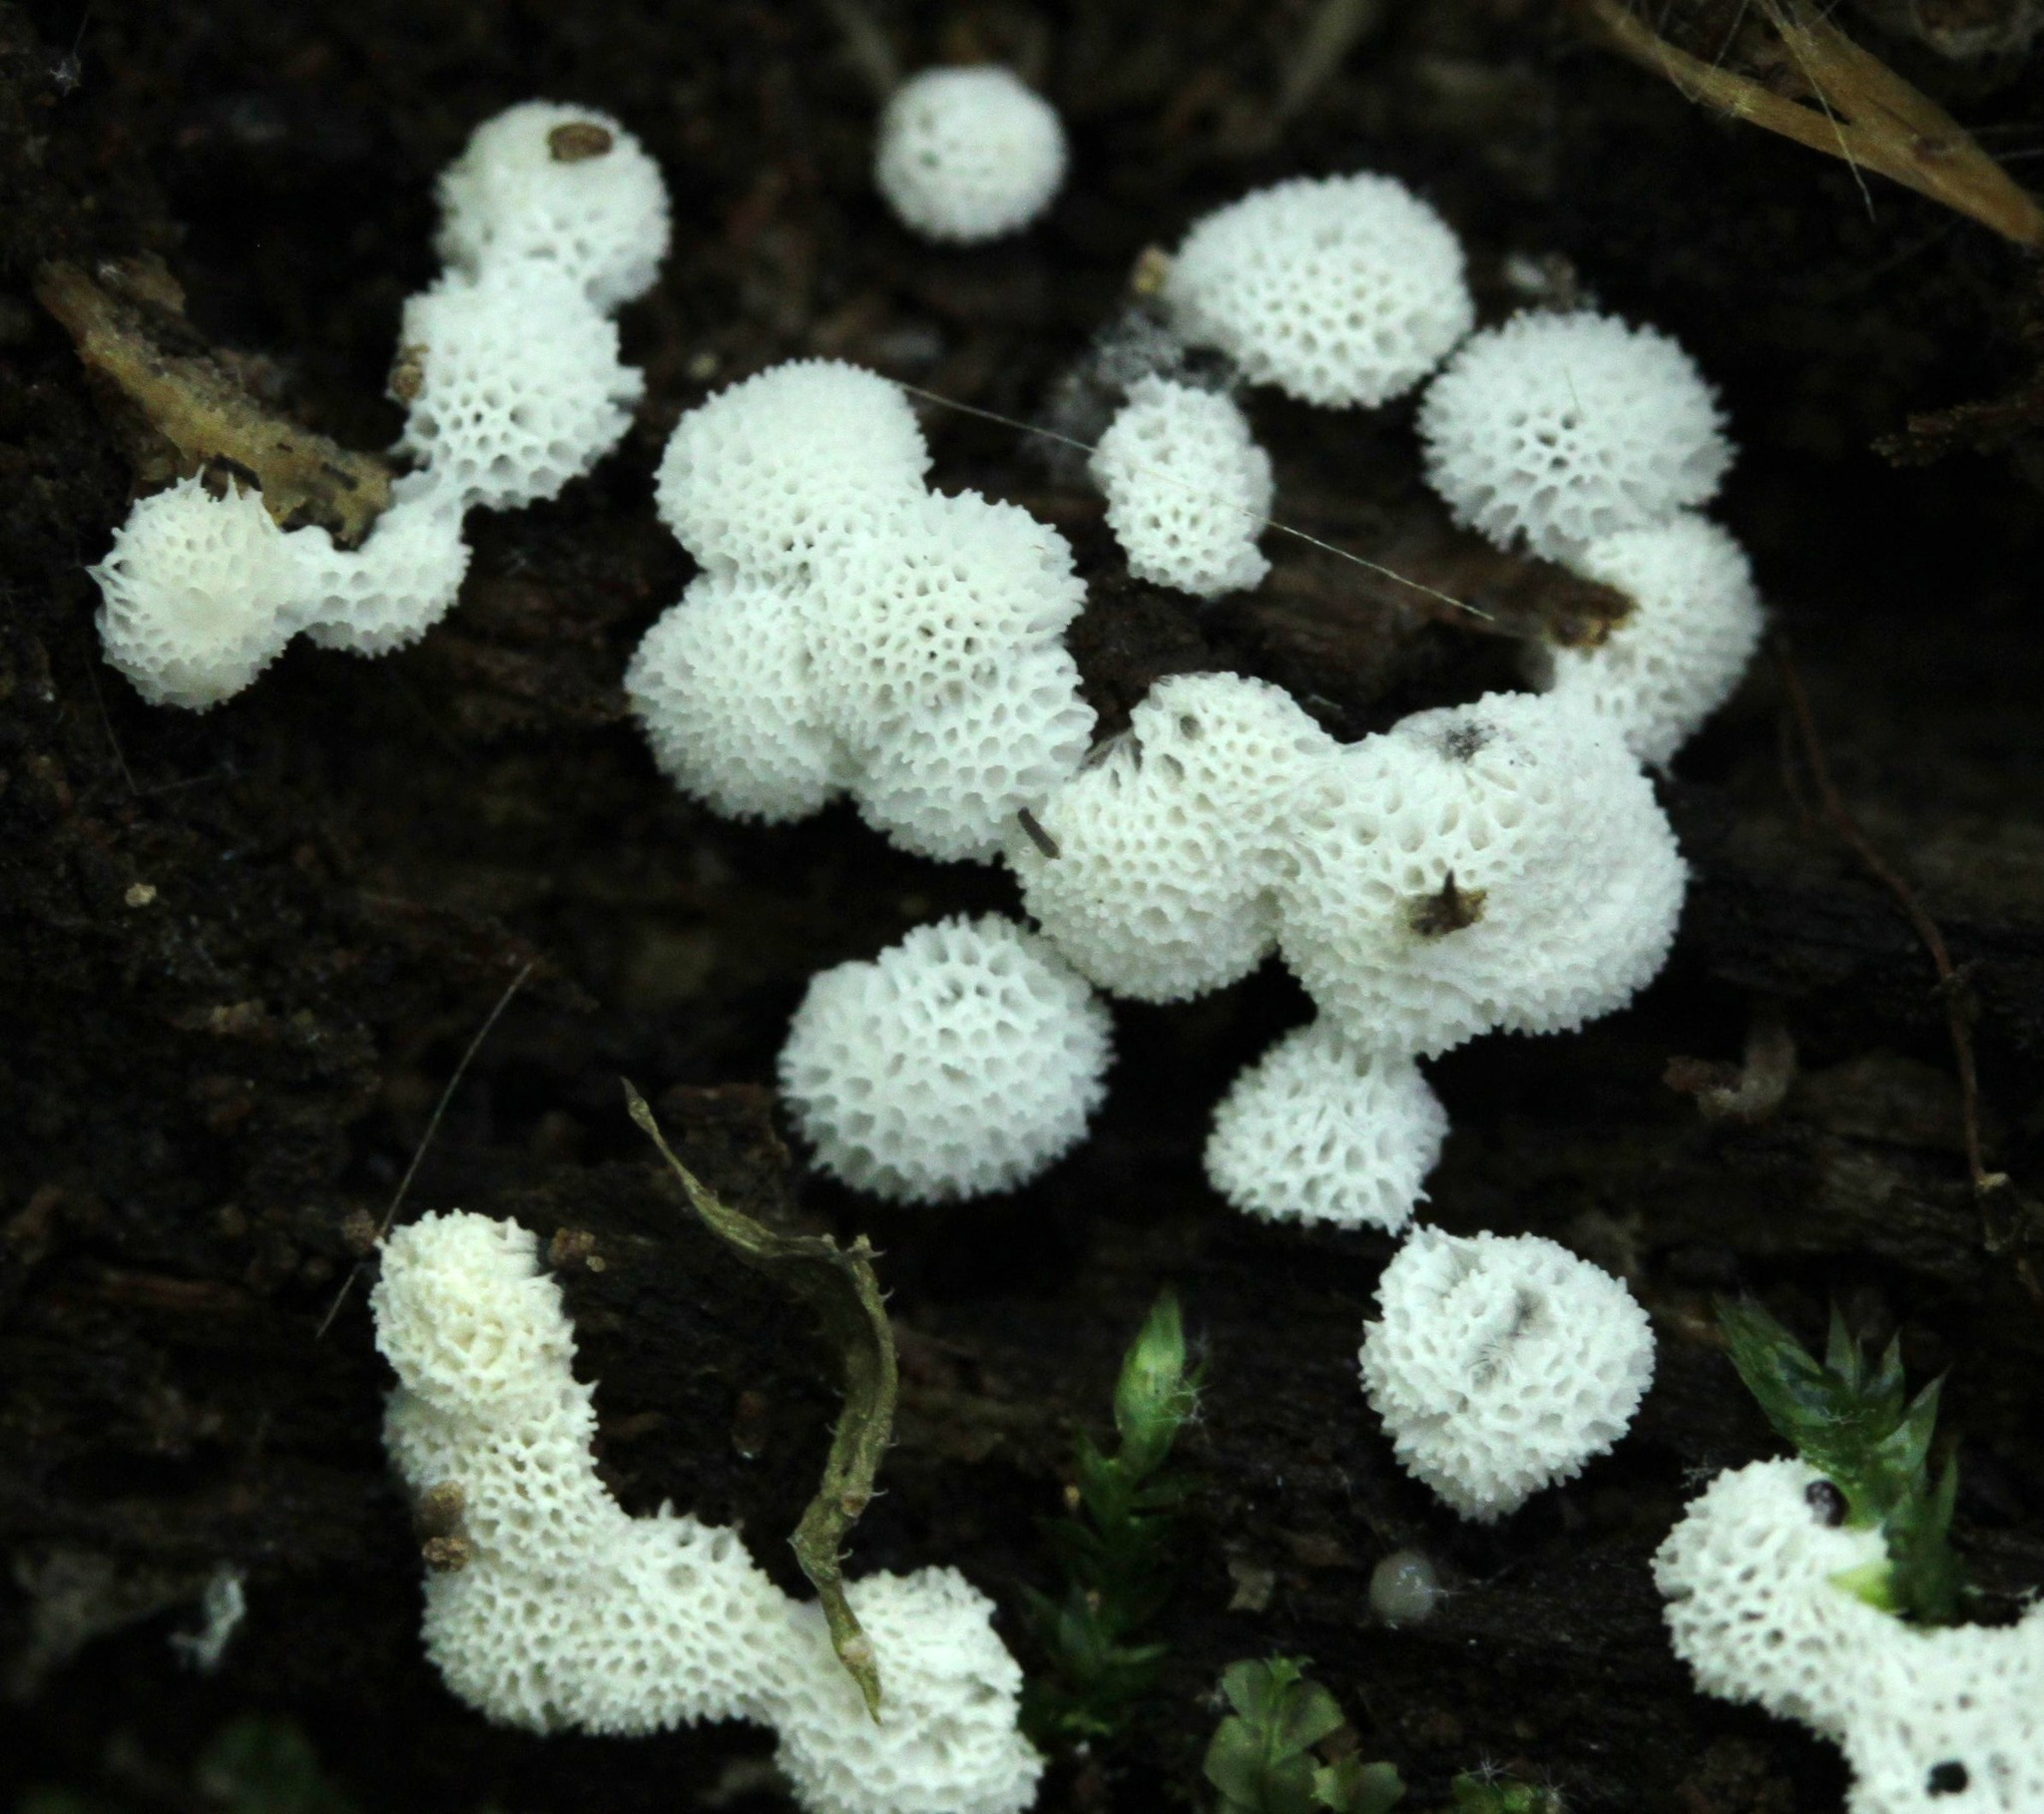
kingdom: Protozoa
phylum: Mycetozoa
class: Protosteliomycetes
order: Ceratiomyxales
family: Ceratiomyxaceae
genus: Ceratiomyxa
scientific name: Ceratiomyxa fruticulosa
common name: Honeycomb coral slime mold
